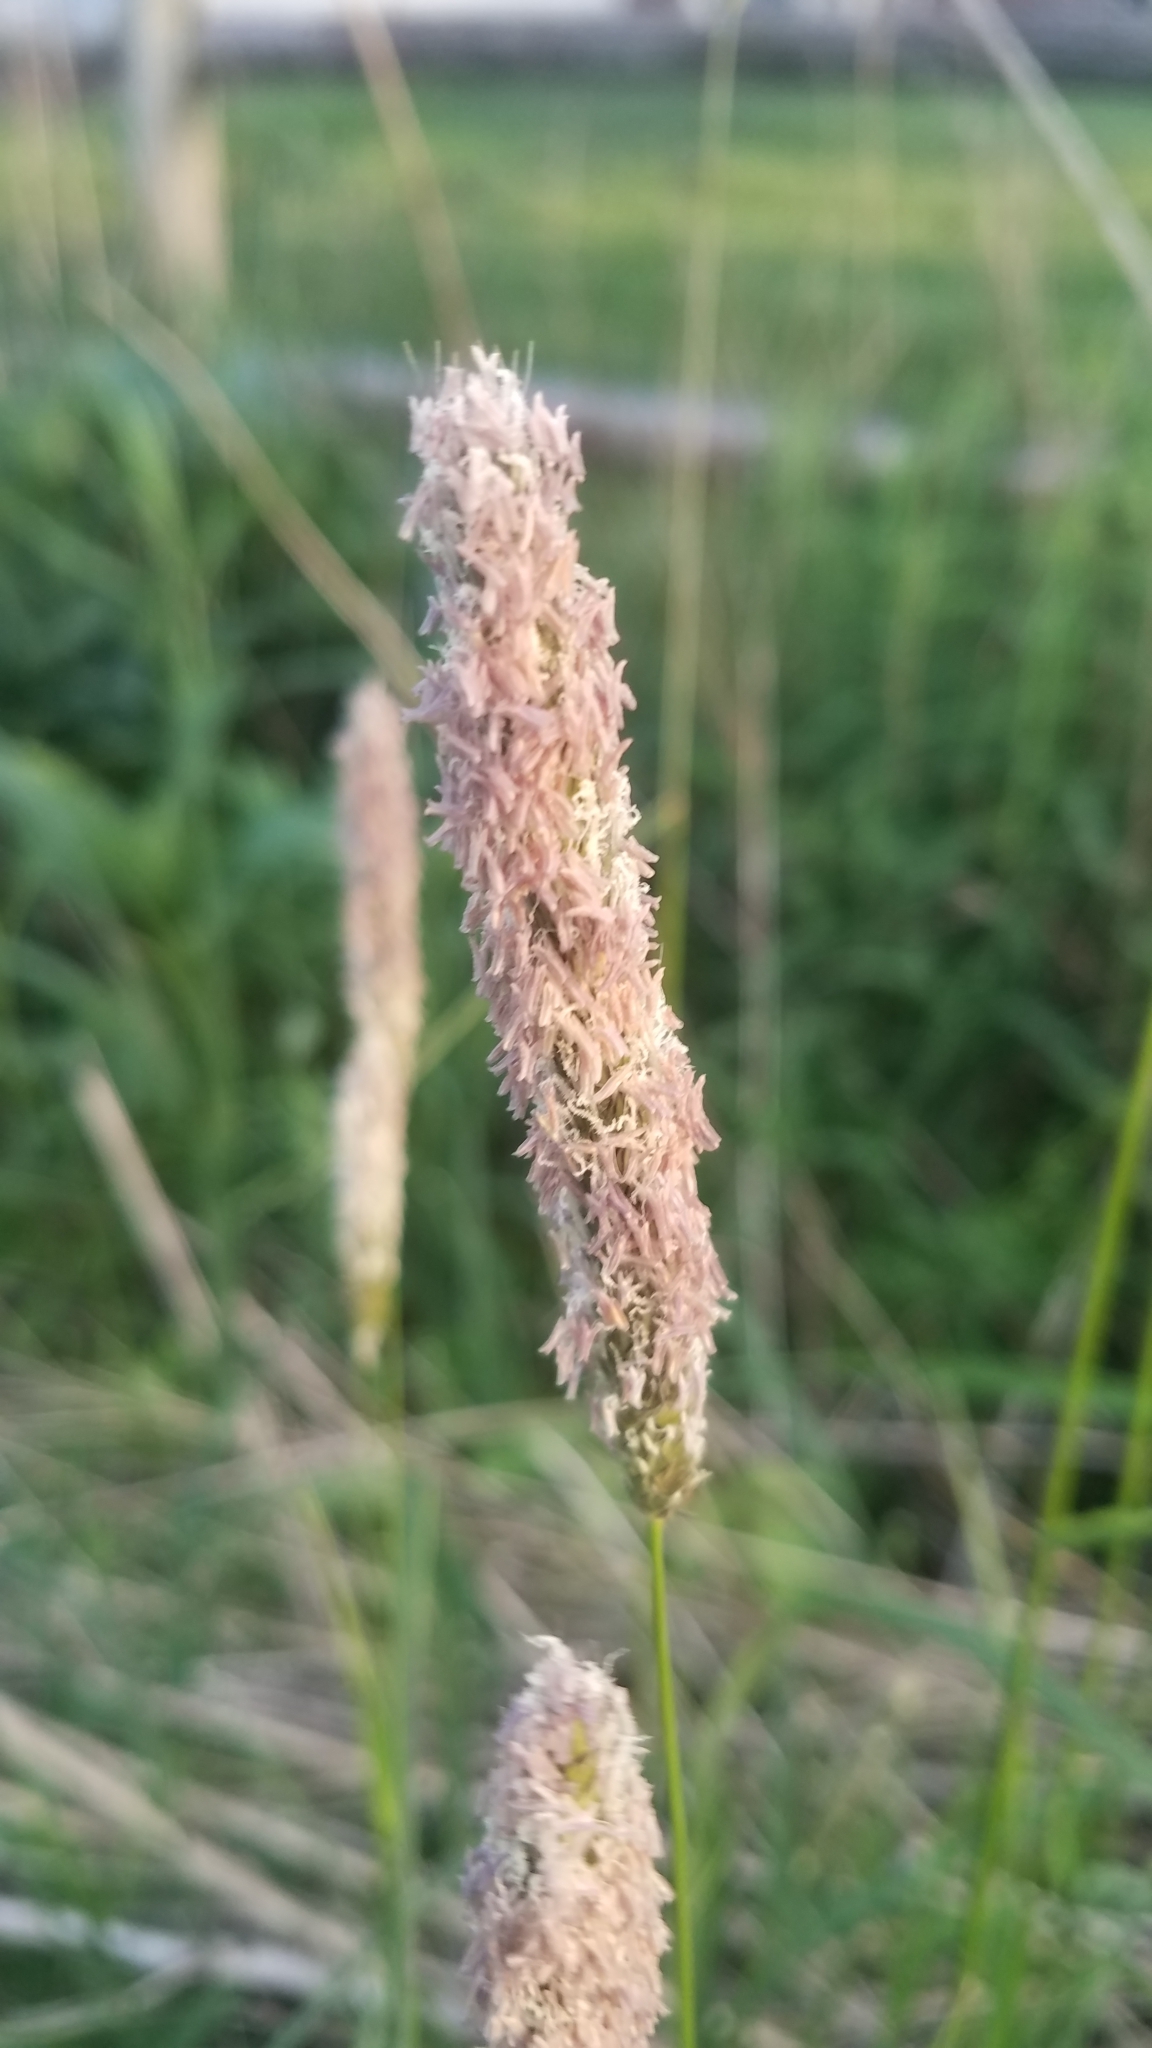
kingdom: Plantae
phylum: Tracheophyta
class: Liliopsida
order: Poales
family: Poaceae
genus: Alopecurus
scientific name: Alopecurus pratensis
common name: Meadow foxtail
